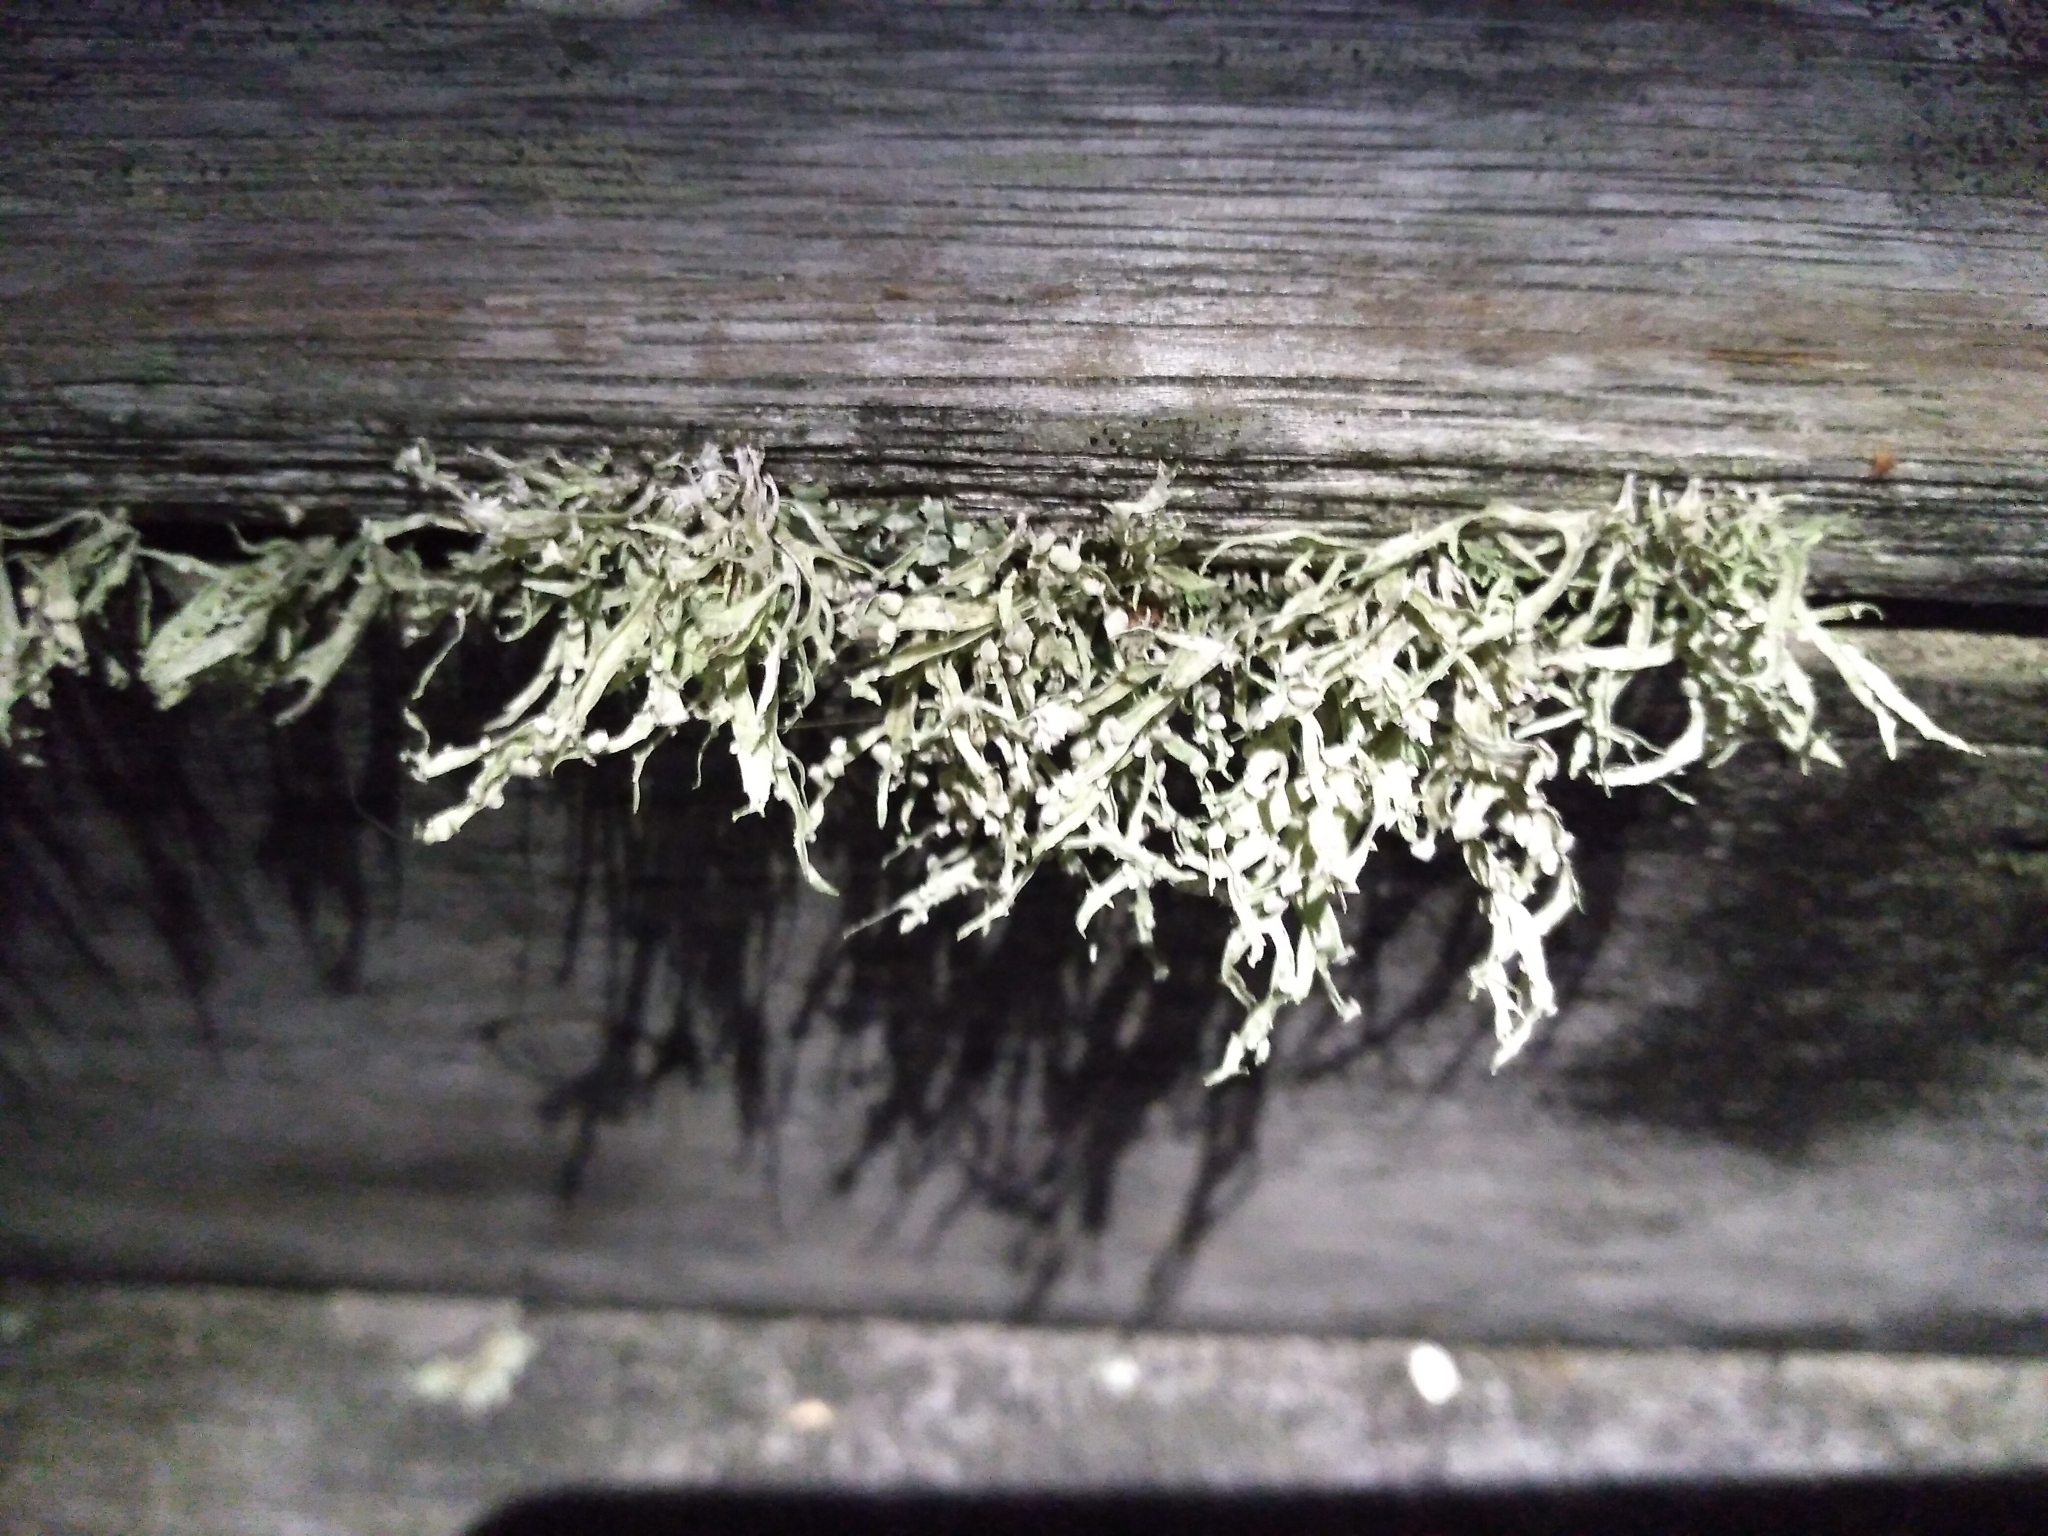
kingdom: Fungi
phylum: Ascomycota
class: Lecanoromycetes
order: Lecanorales
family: Ramalinaceae
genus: Ramalina
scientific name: Ramalina celastri
